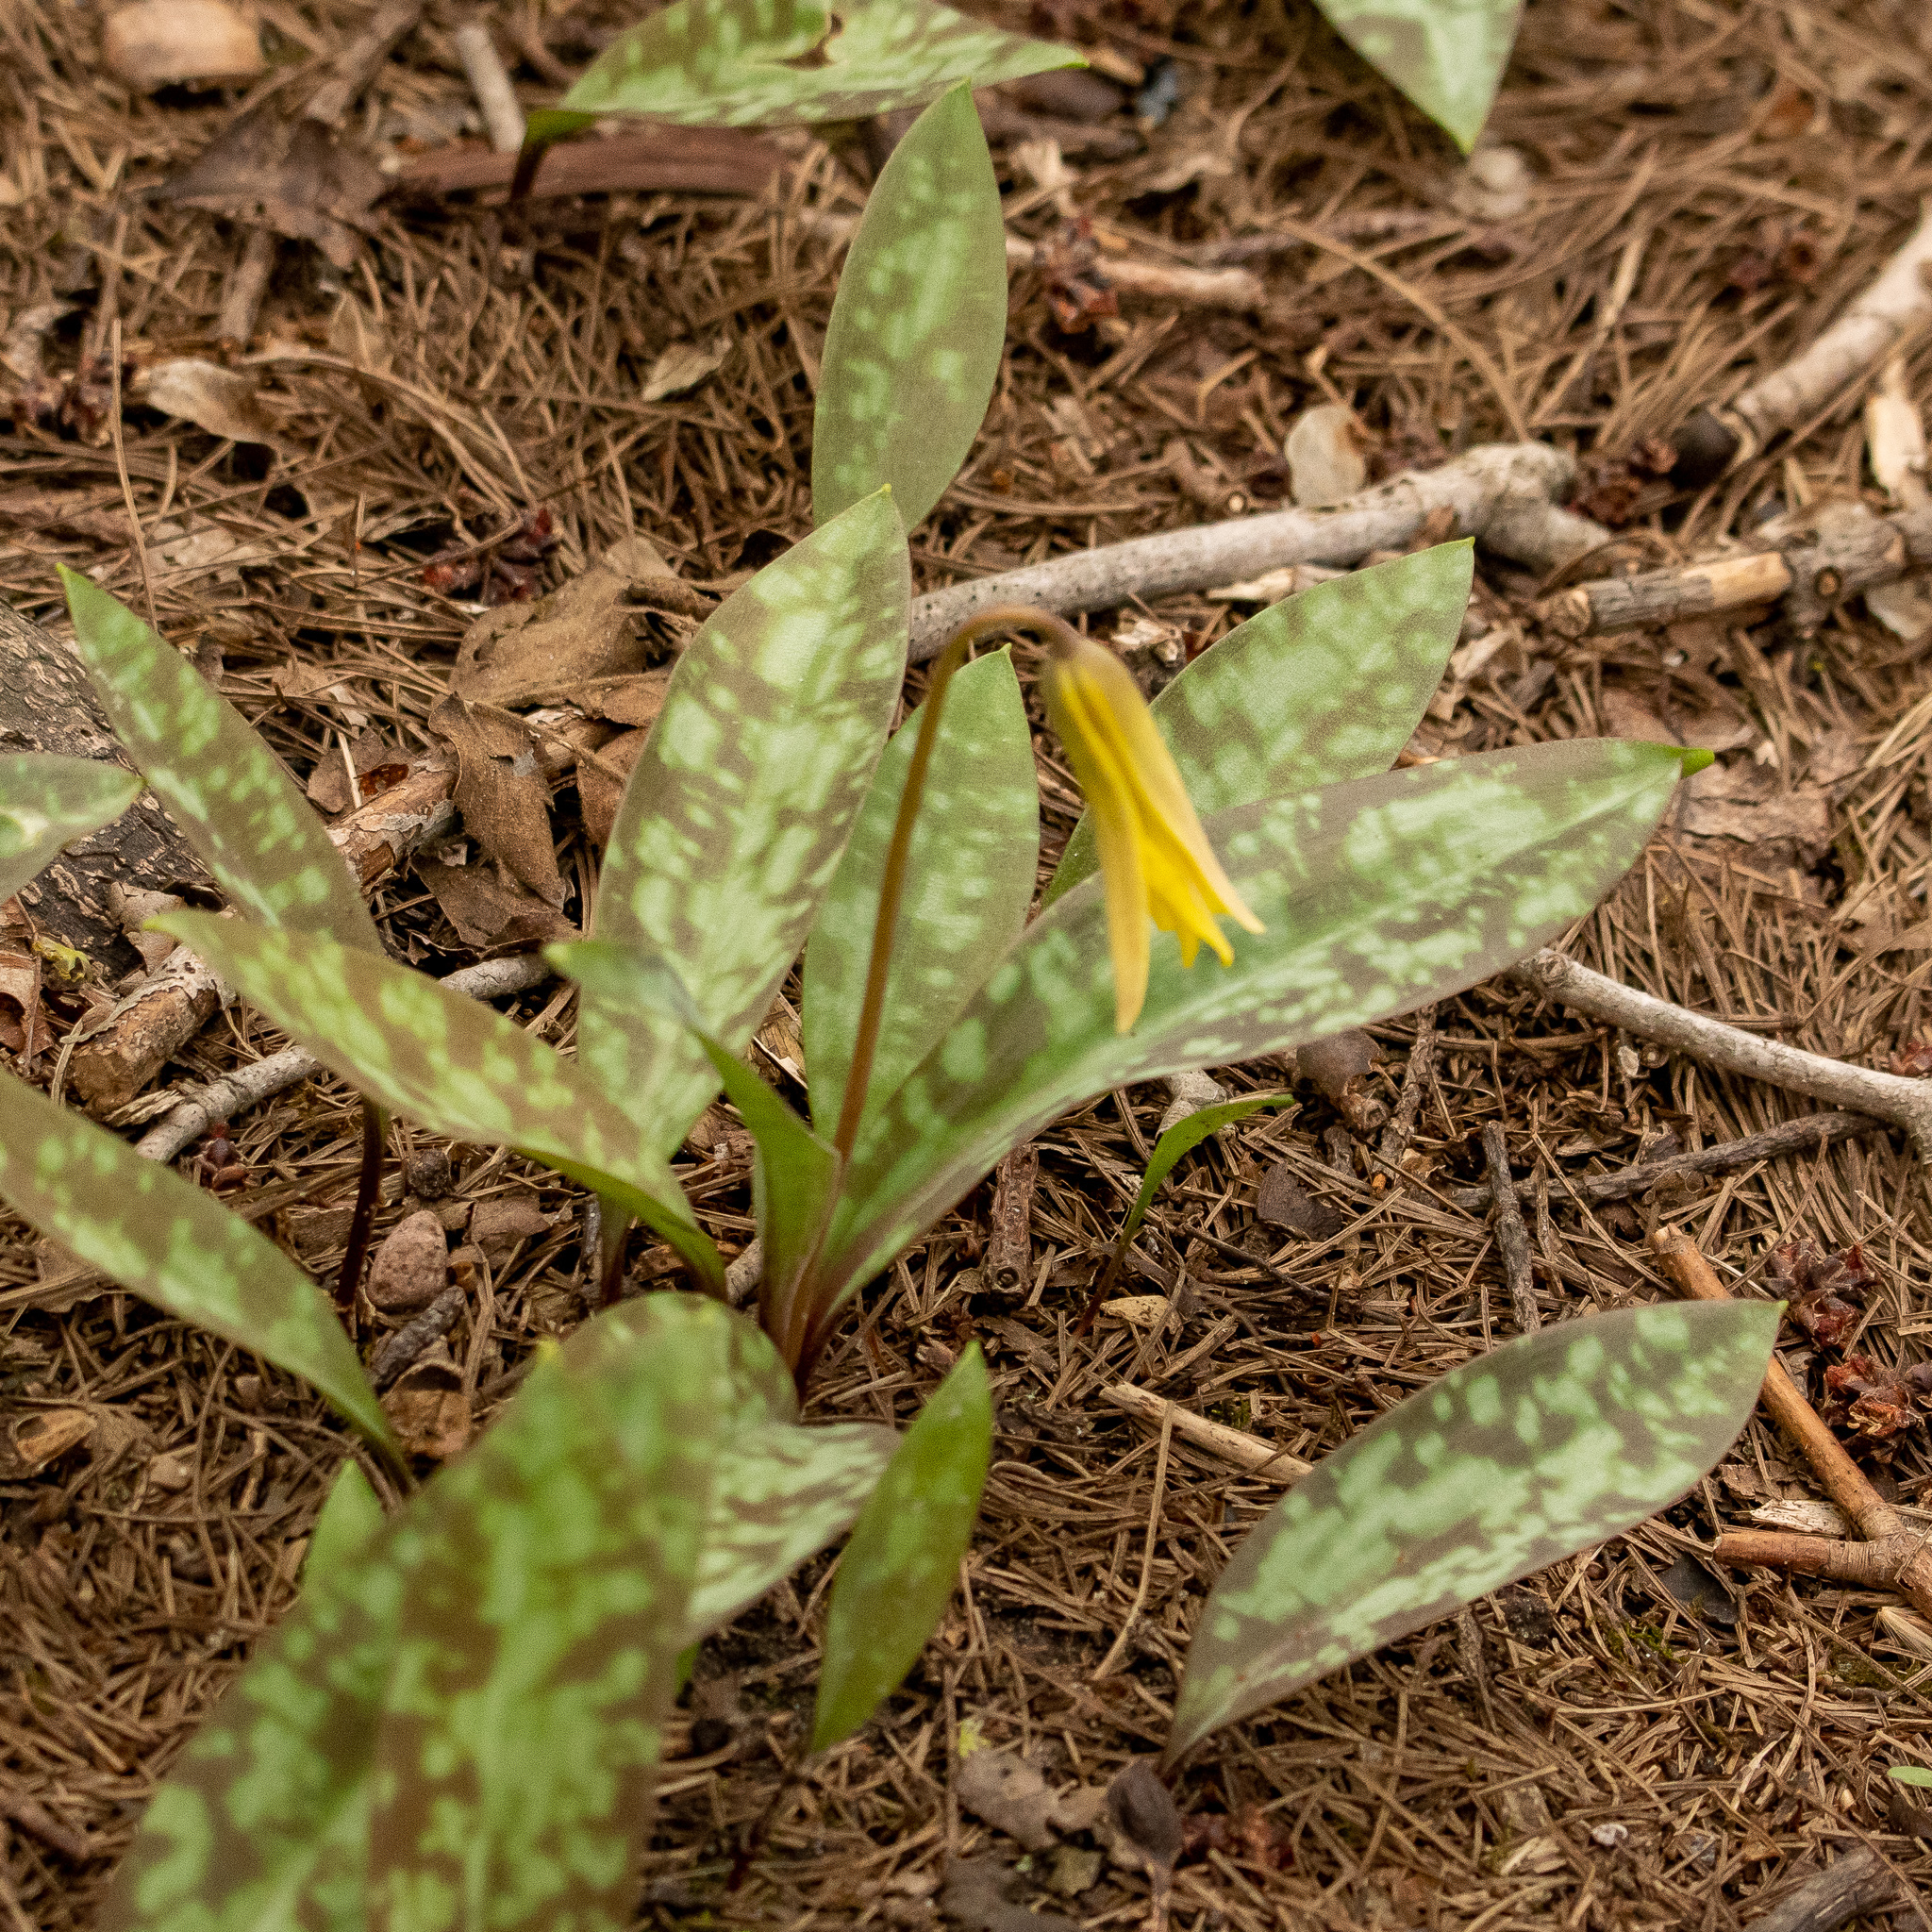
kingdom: Plantae
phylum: Tracheophyta
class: Liliopsida
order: Liliales
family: Liliaceae
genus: Erythronium
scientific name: Erythronium americanum
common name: Yellow adder's-tongue
